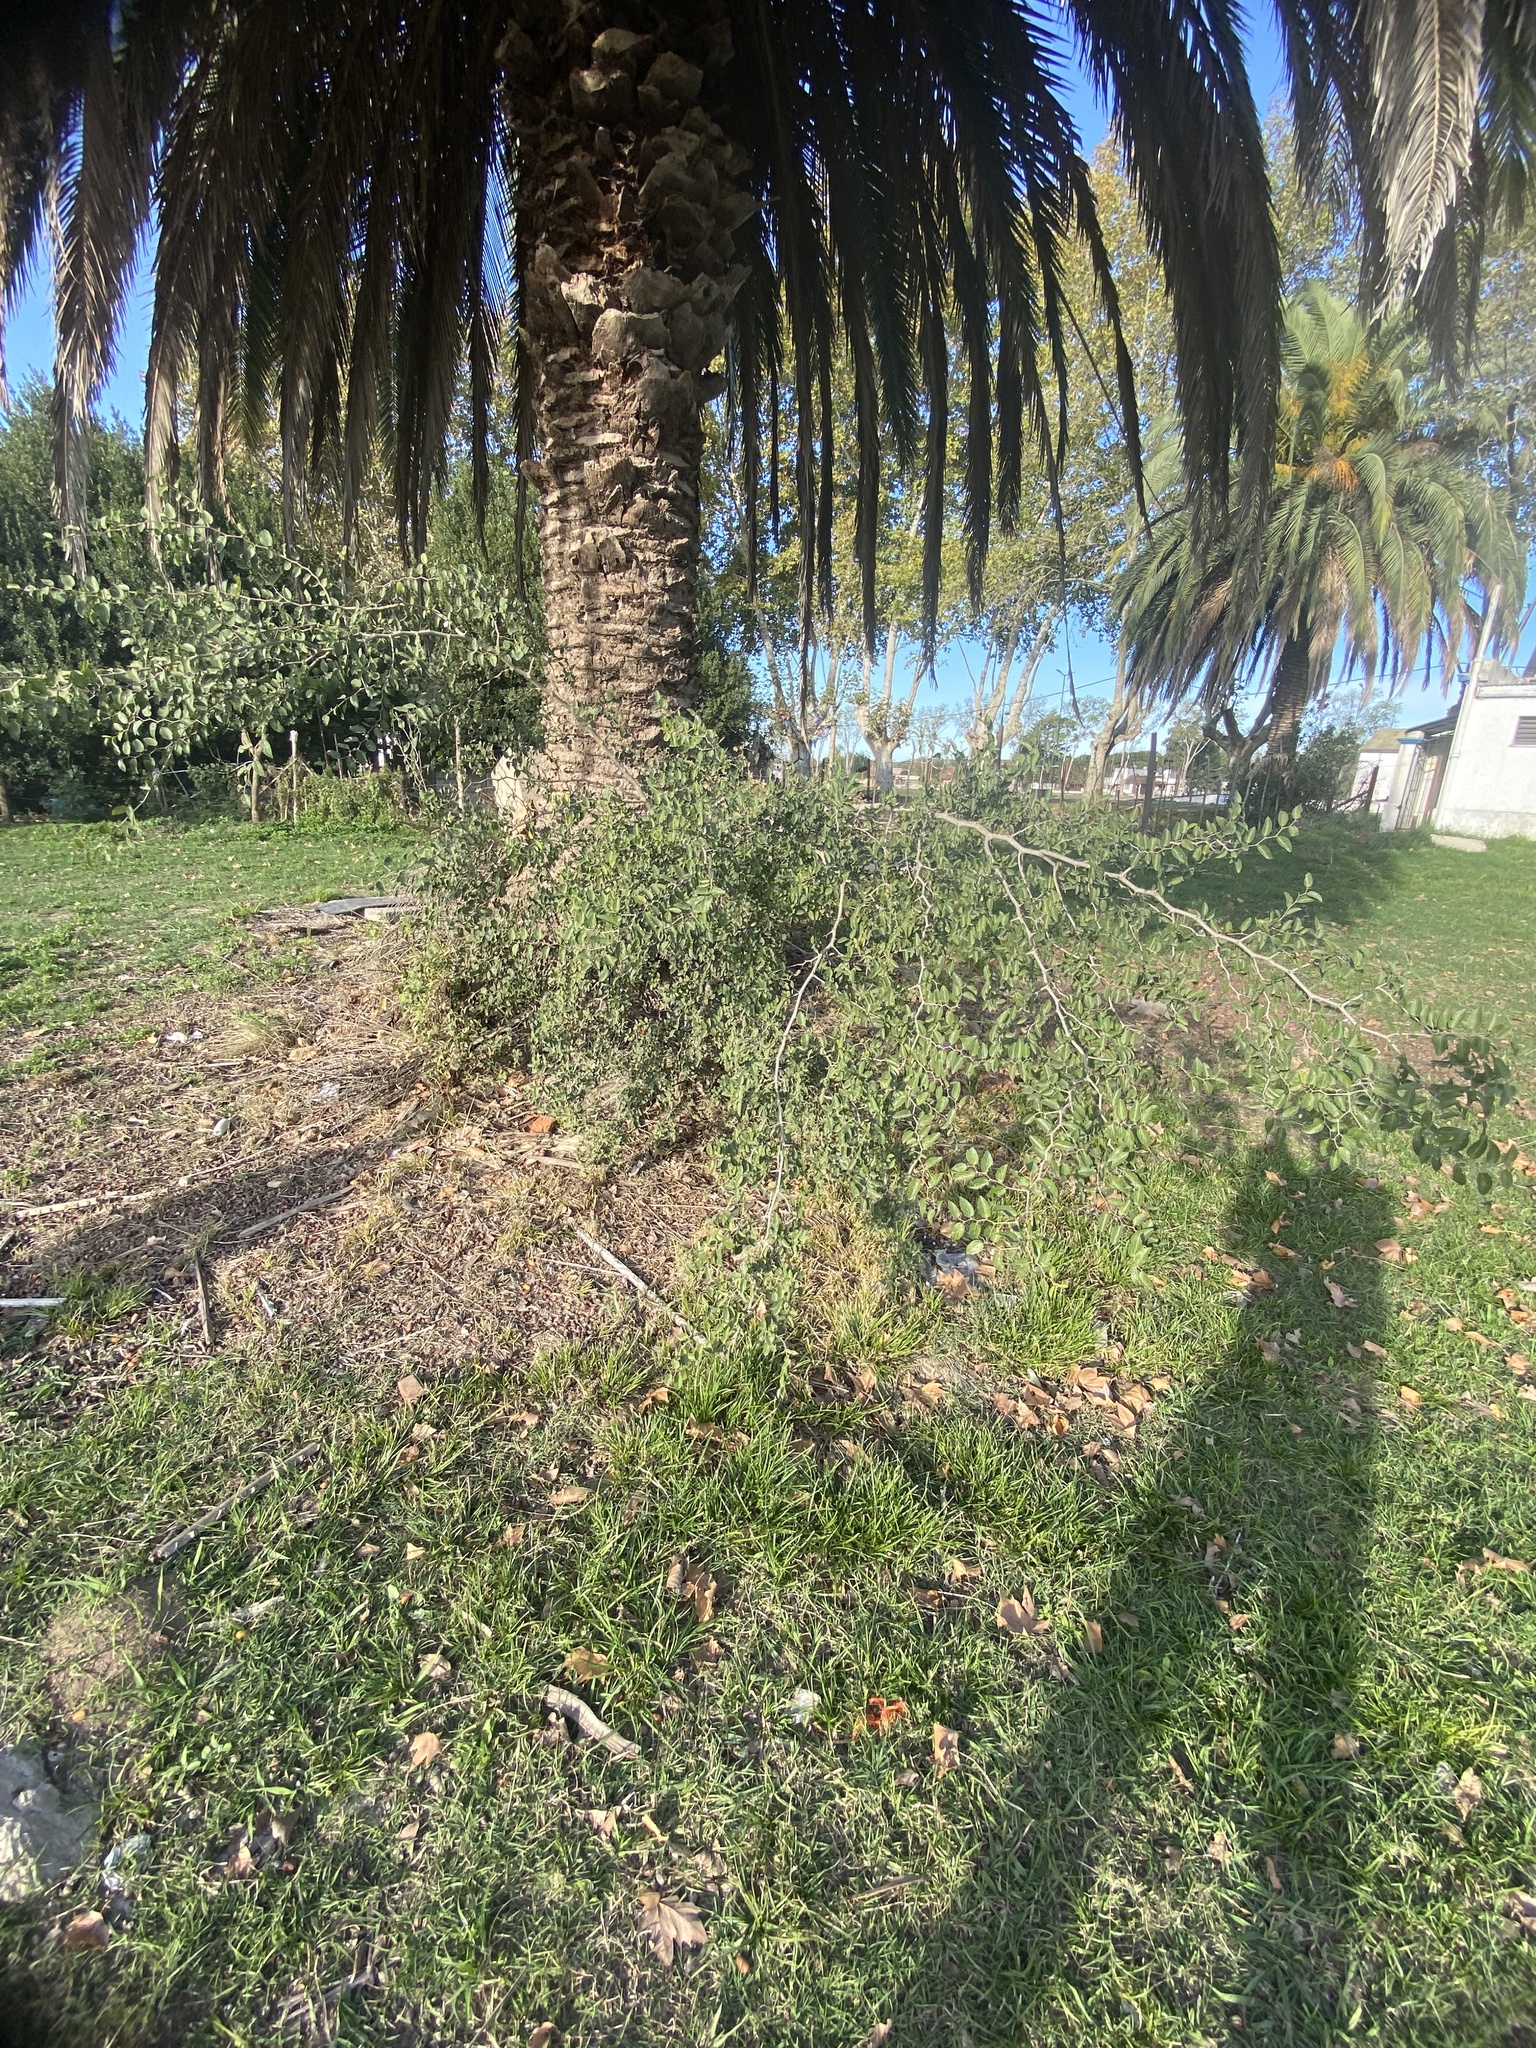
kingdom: Plantae
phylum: Tracheophyta
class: Magnoliopsida
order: Rosales
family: Cannabaceae
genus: Celtis
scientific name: Celtis tala
